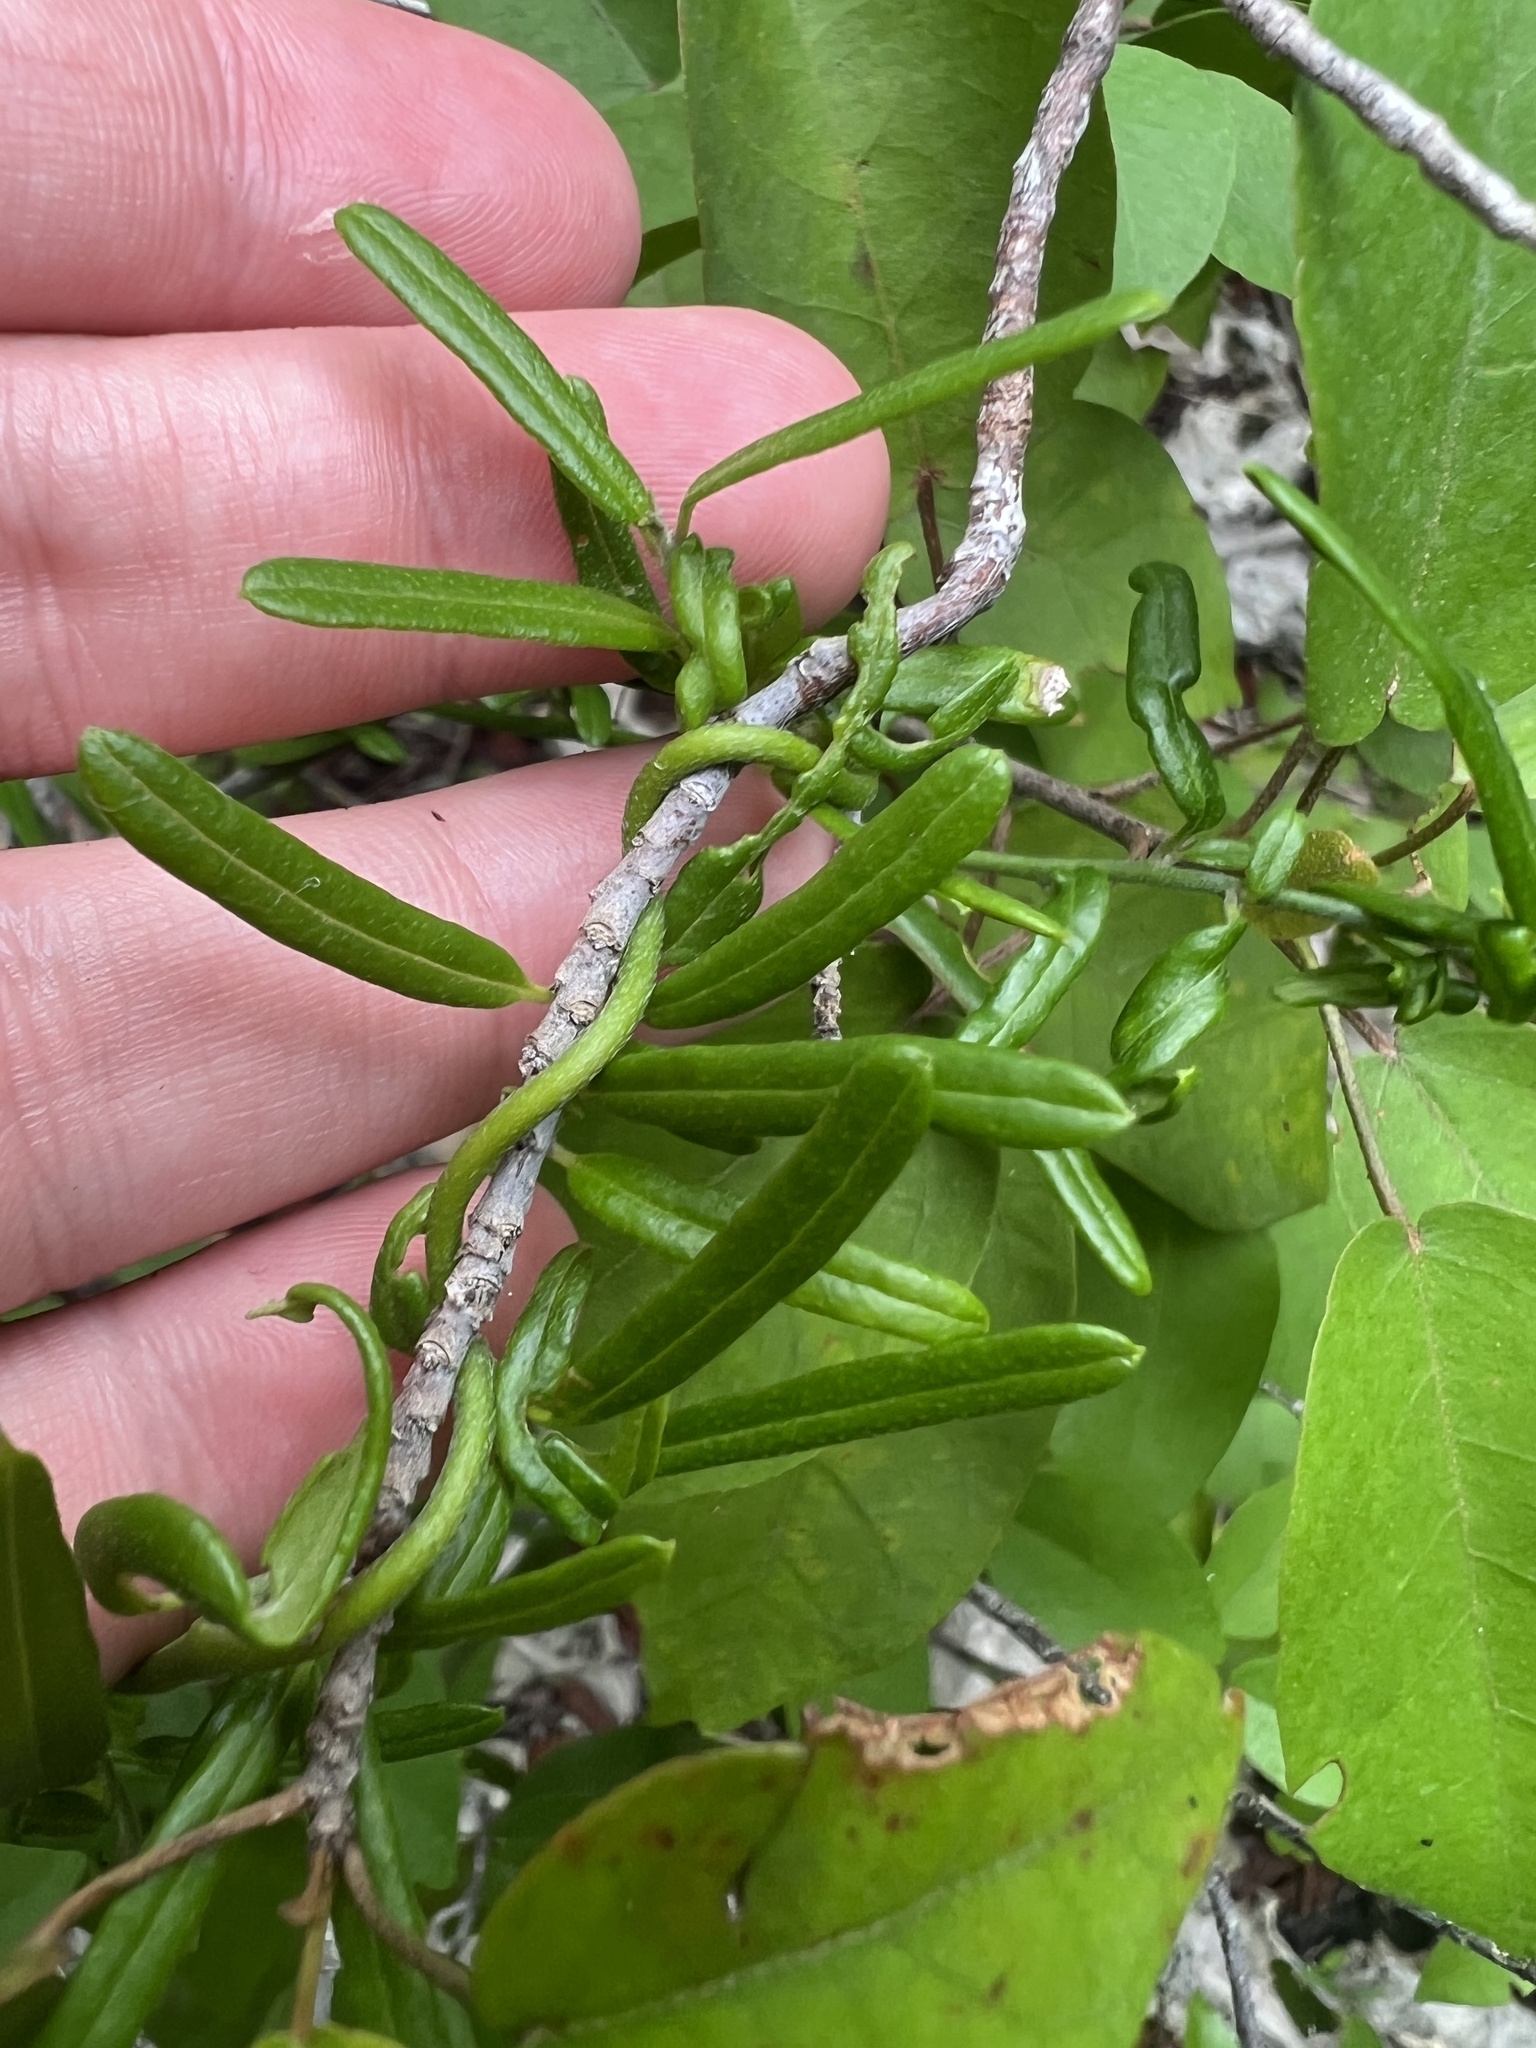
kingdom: Plantae
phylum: Tracheophyta
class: Magnoliopsida
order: Solanales
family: Convolvulaceae
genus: Jacquemontia
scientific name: Jacquemontia havanensis
